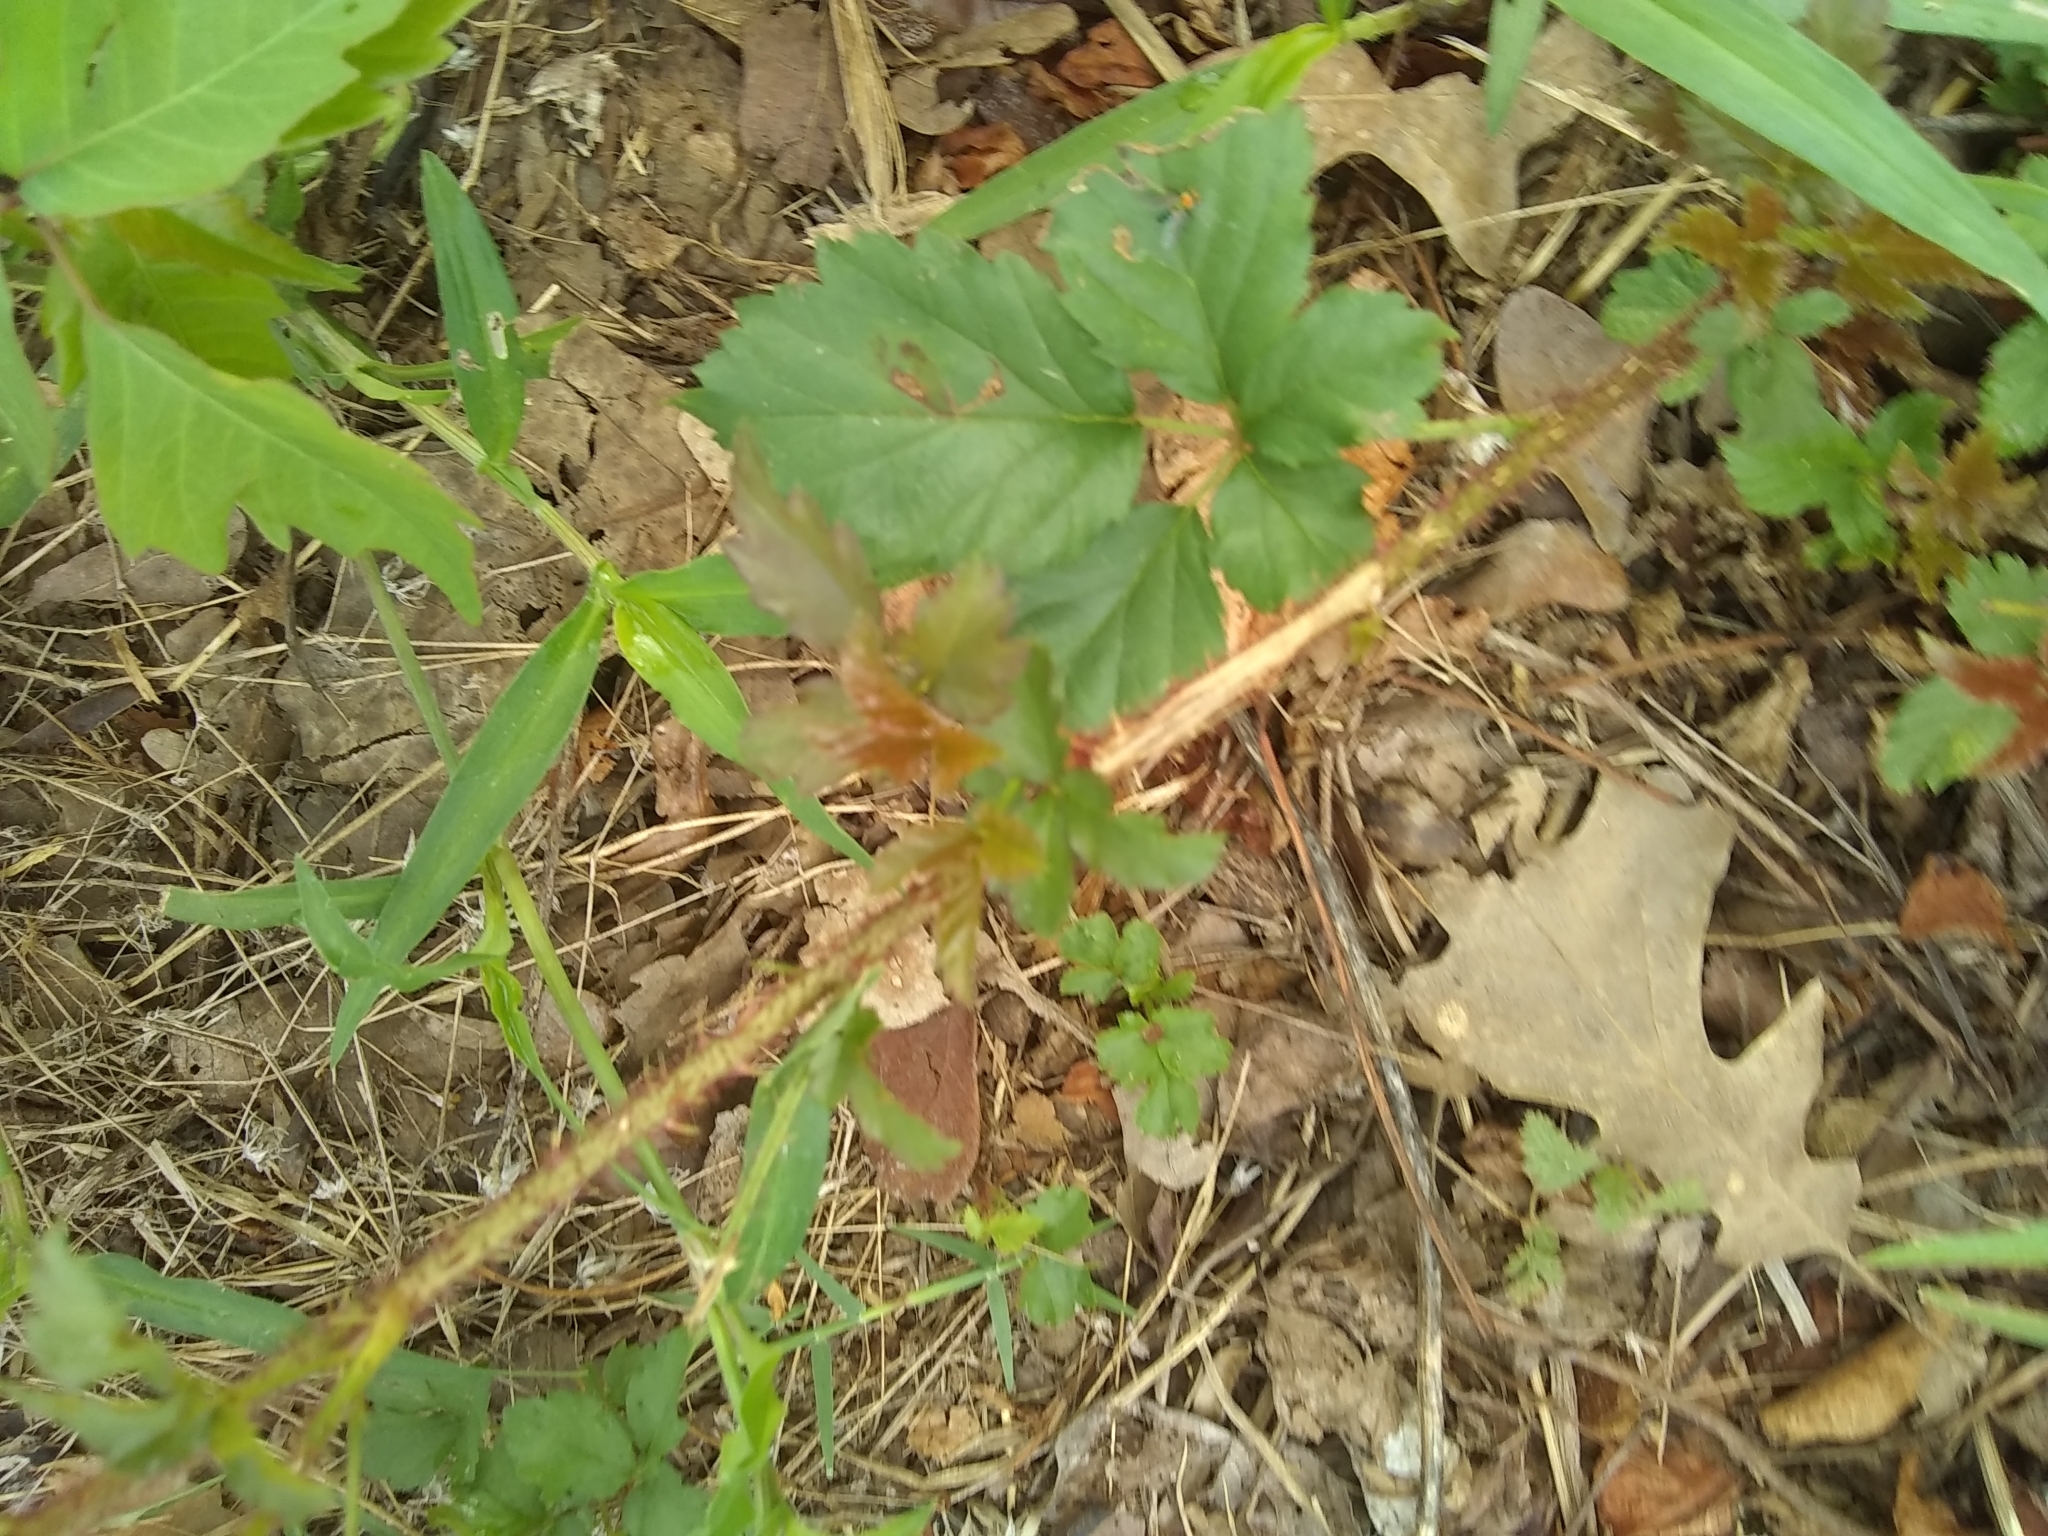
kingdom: Plantae
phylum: Tracheophyta
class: Magnoliopsida
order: Rosales
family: Rosaceae
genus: Rubus
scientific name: Rubus trivialis
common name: Southern dewberry
